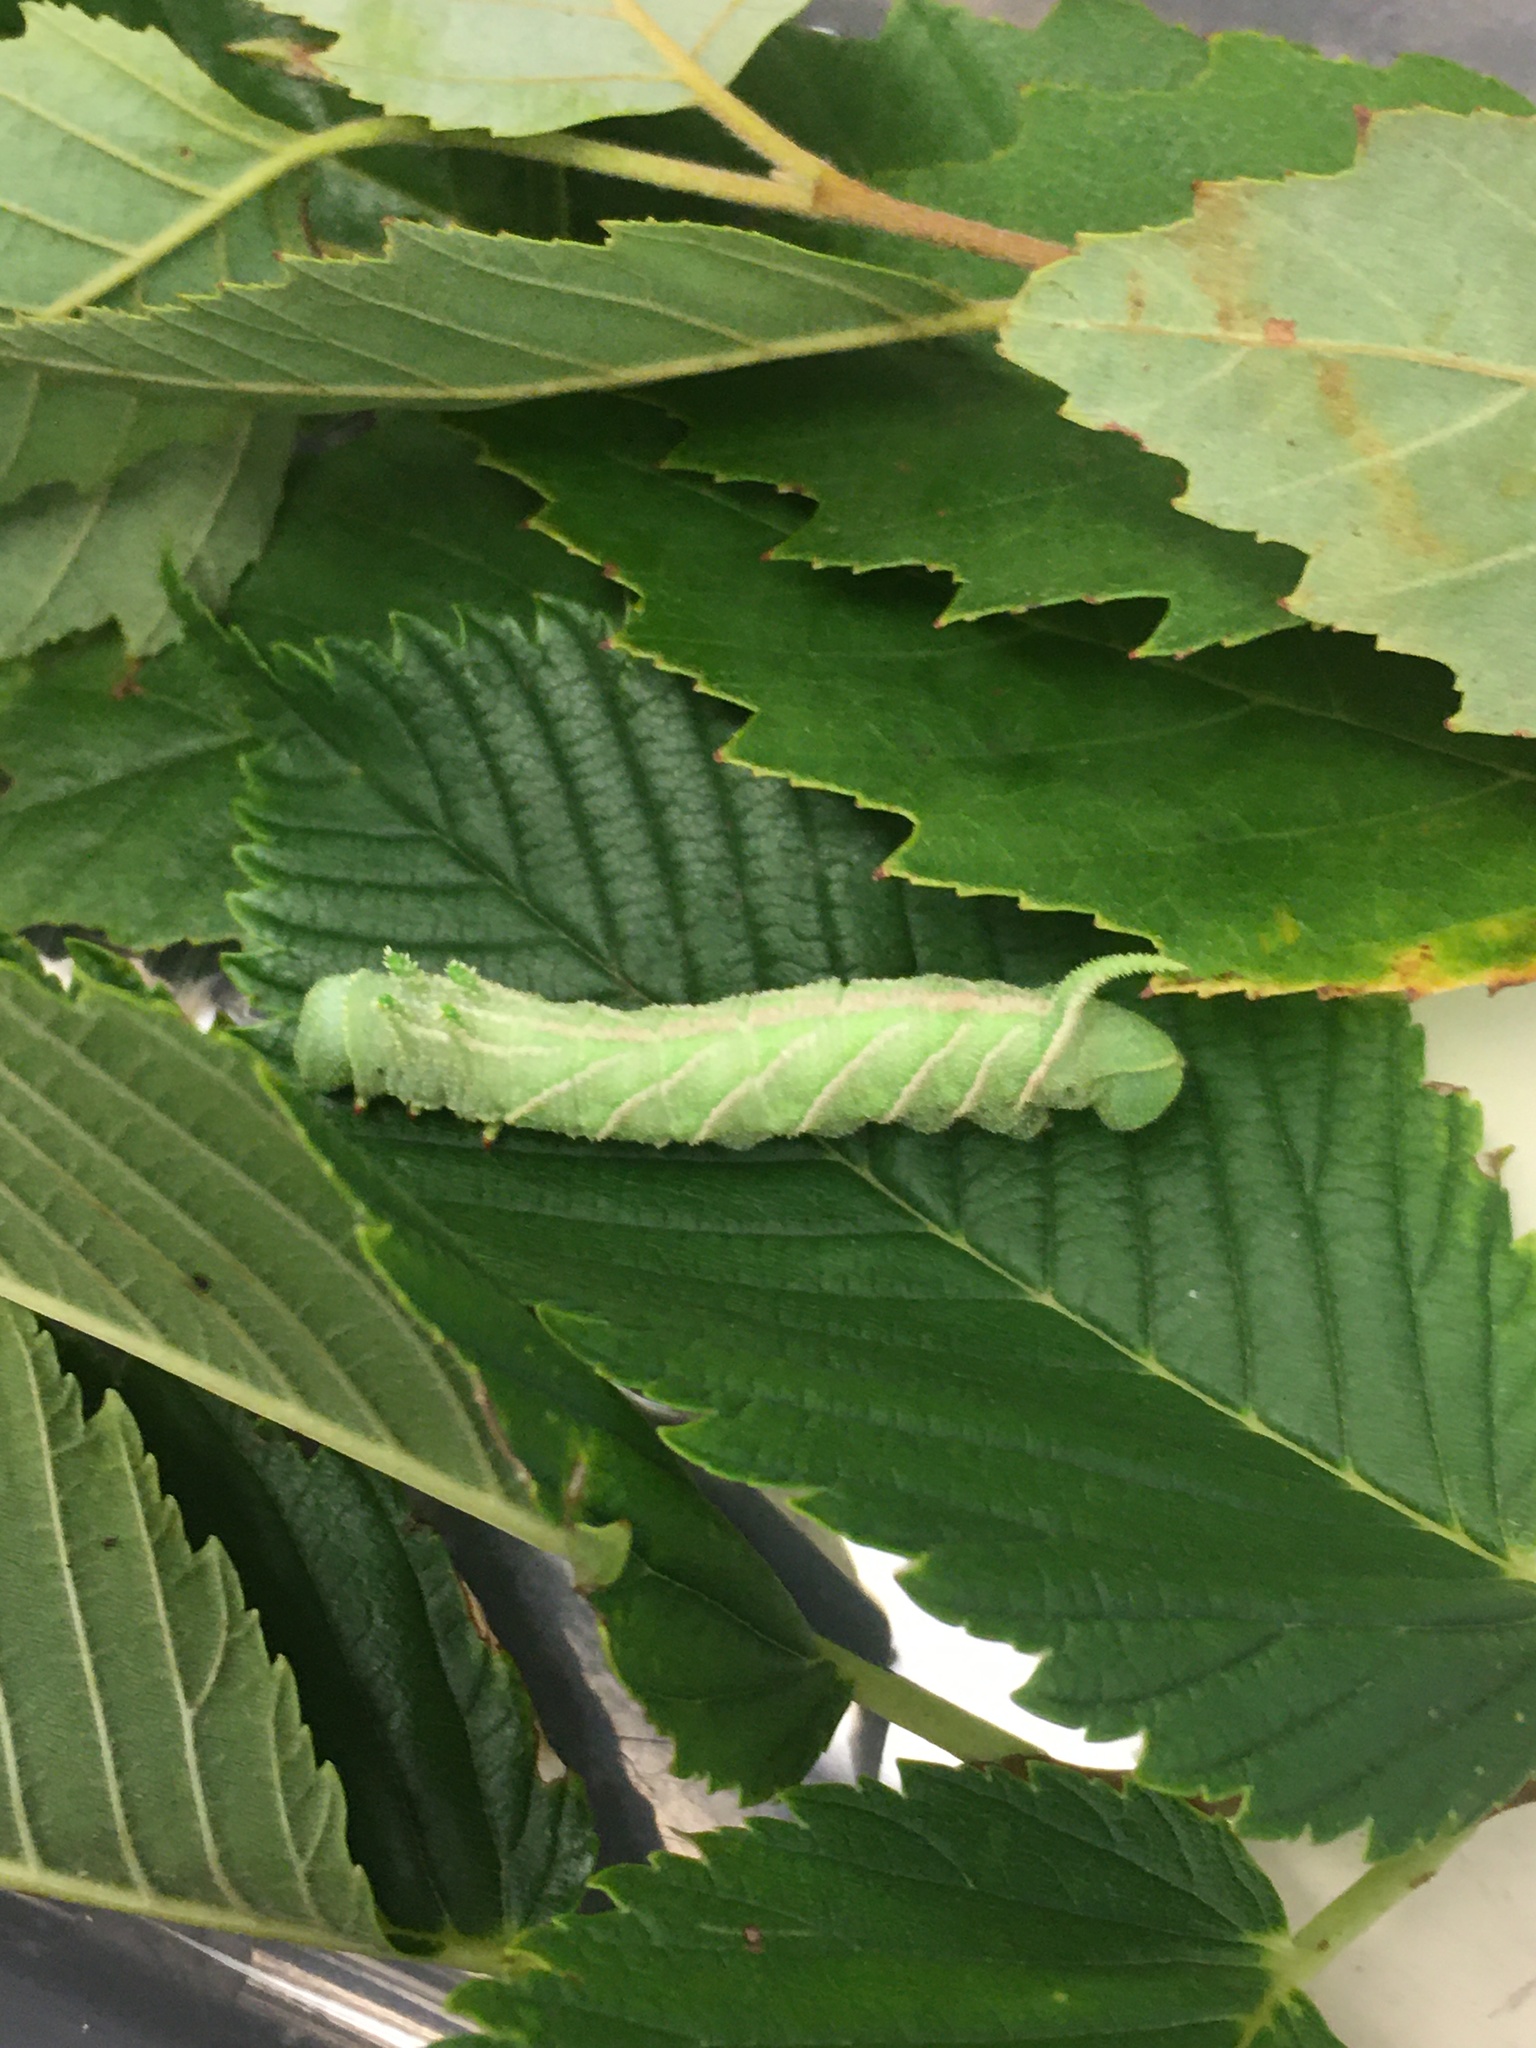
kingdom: Animalia
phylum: Arthropoda
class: Insecta
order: Lepidoptera
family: Sphingidae
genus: Ceratomia
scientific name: Ceratomia amyntor
